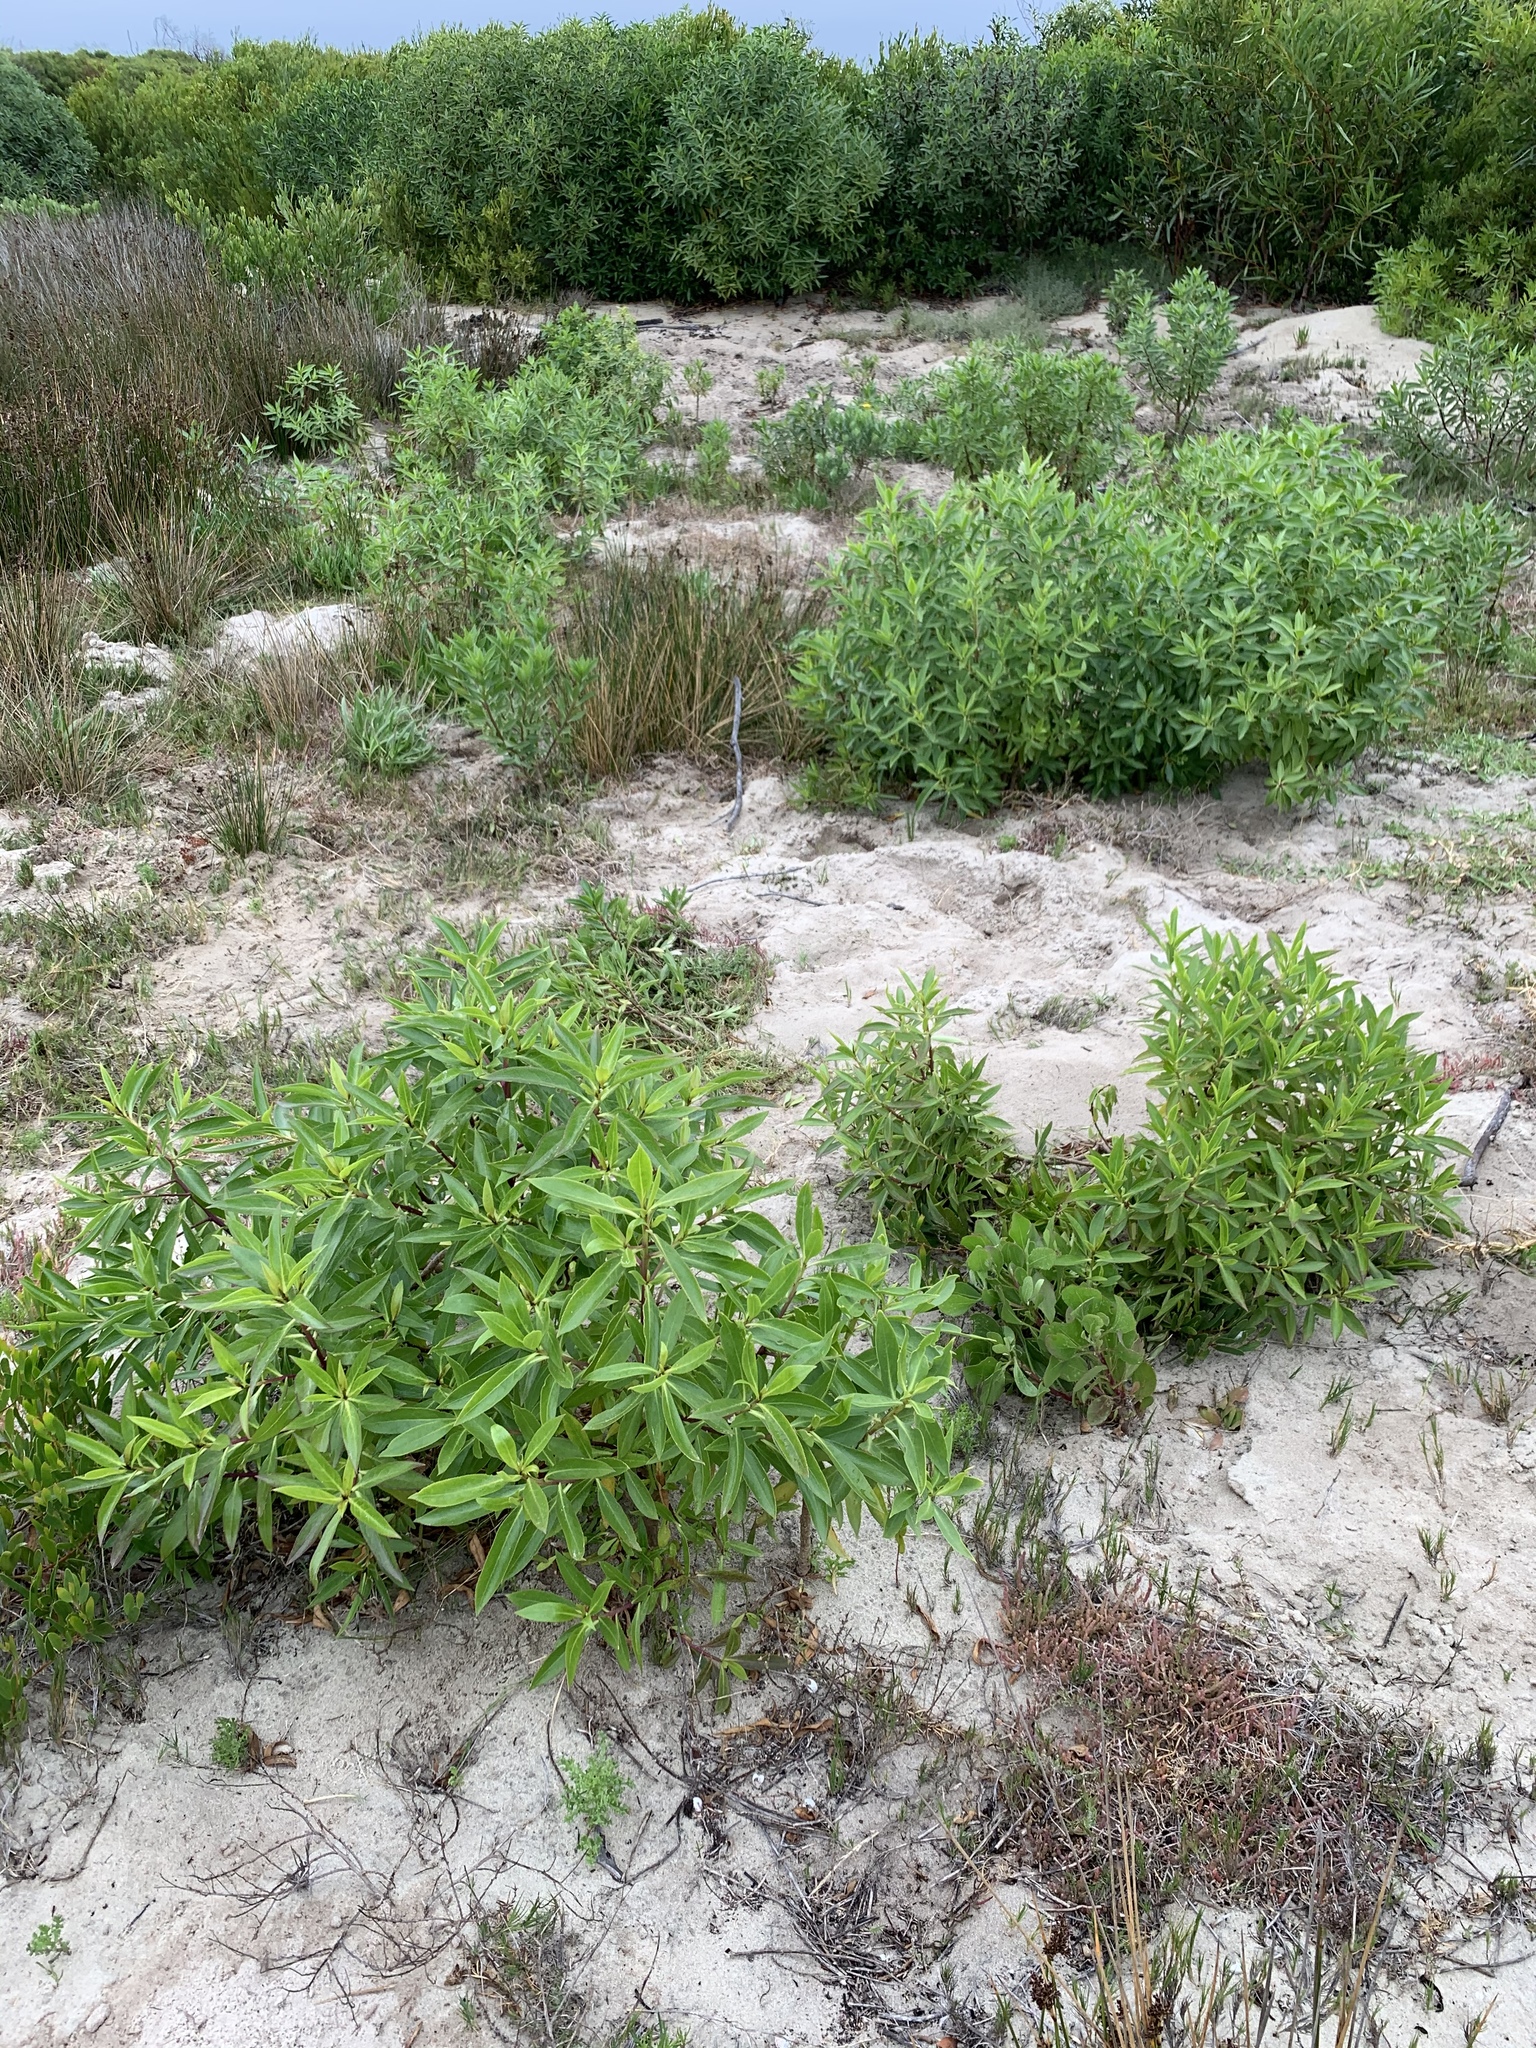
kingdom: Plantae
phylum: Tracheophyta
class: Magnoliopsida
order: Lamiales
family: Scrophulariaceae
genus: Myoporum
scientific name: Myoporum laetum
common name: Ngaio tree
